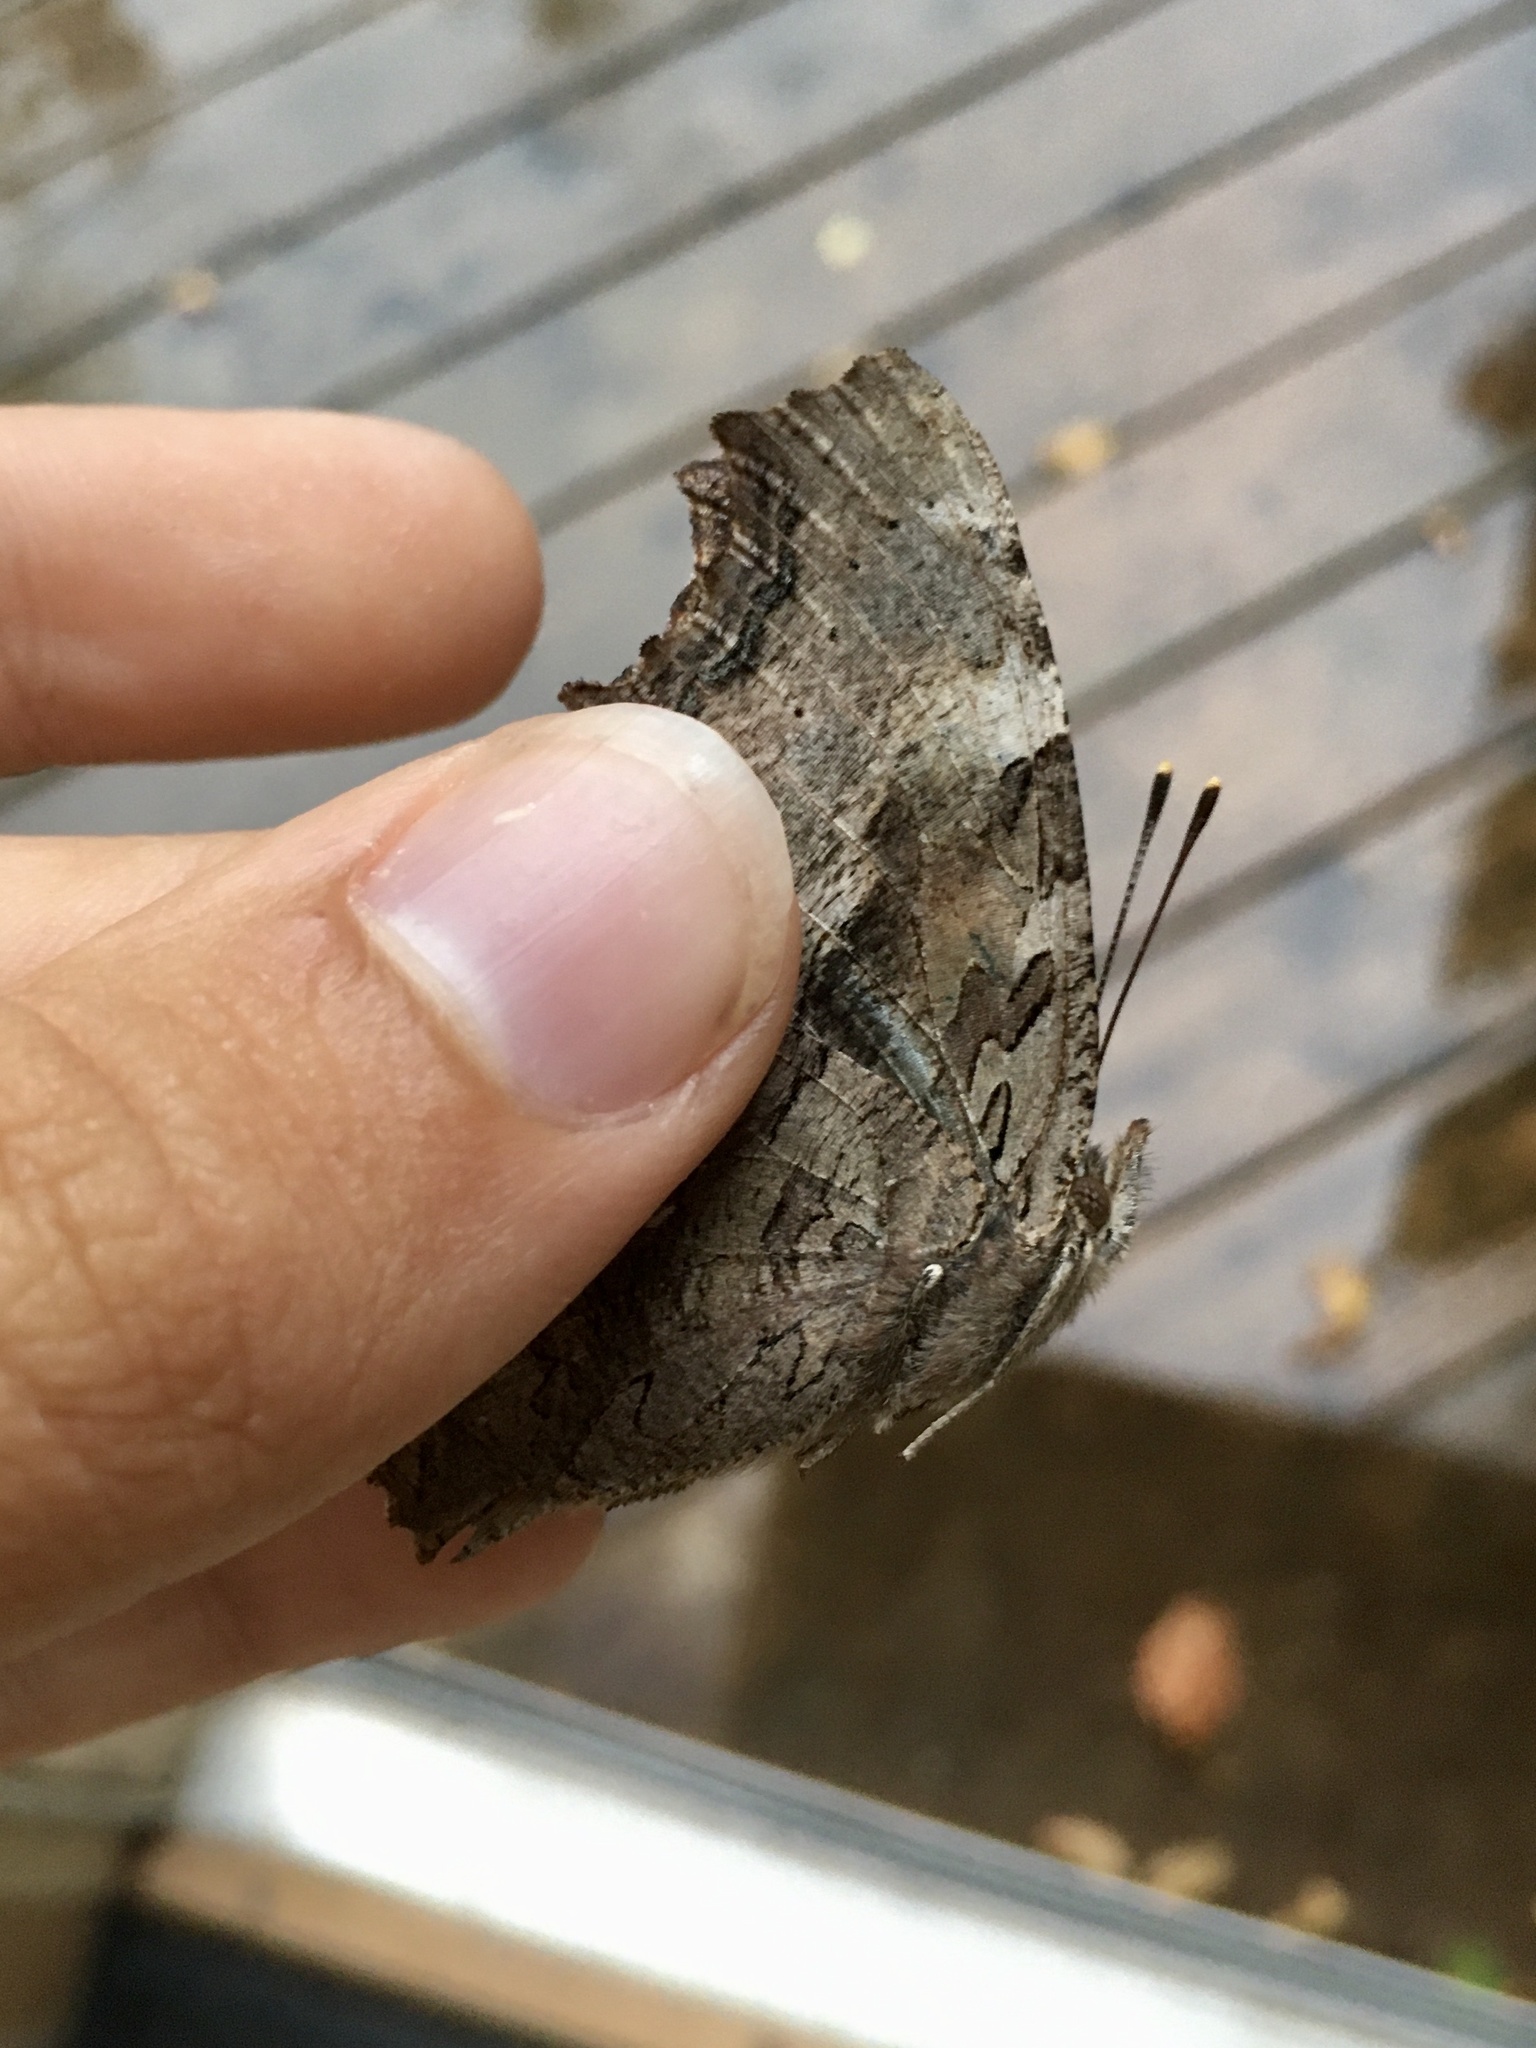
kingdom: Animalia
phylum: Arthropoda
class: Insecta
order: Lepidoptera
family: Nymphalidae
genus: Polygonia
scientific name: Polygonia vaualbum
